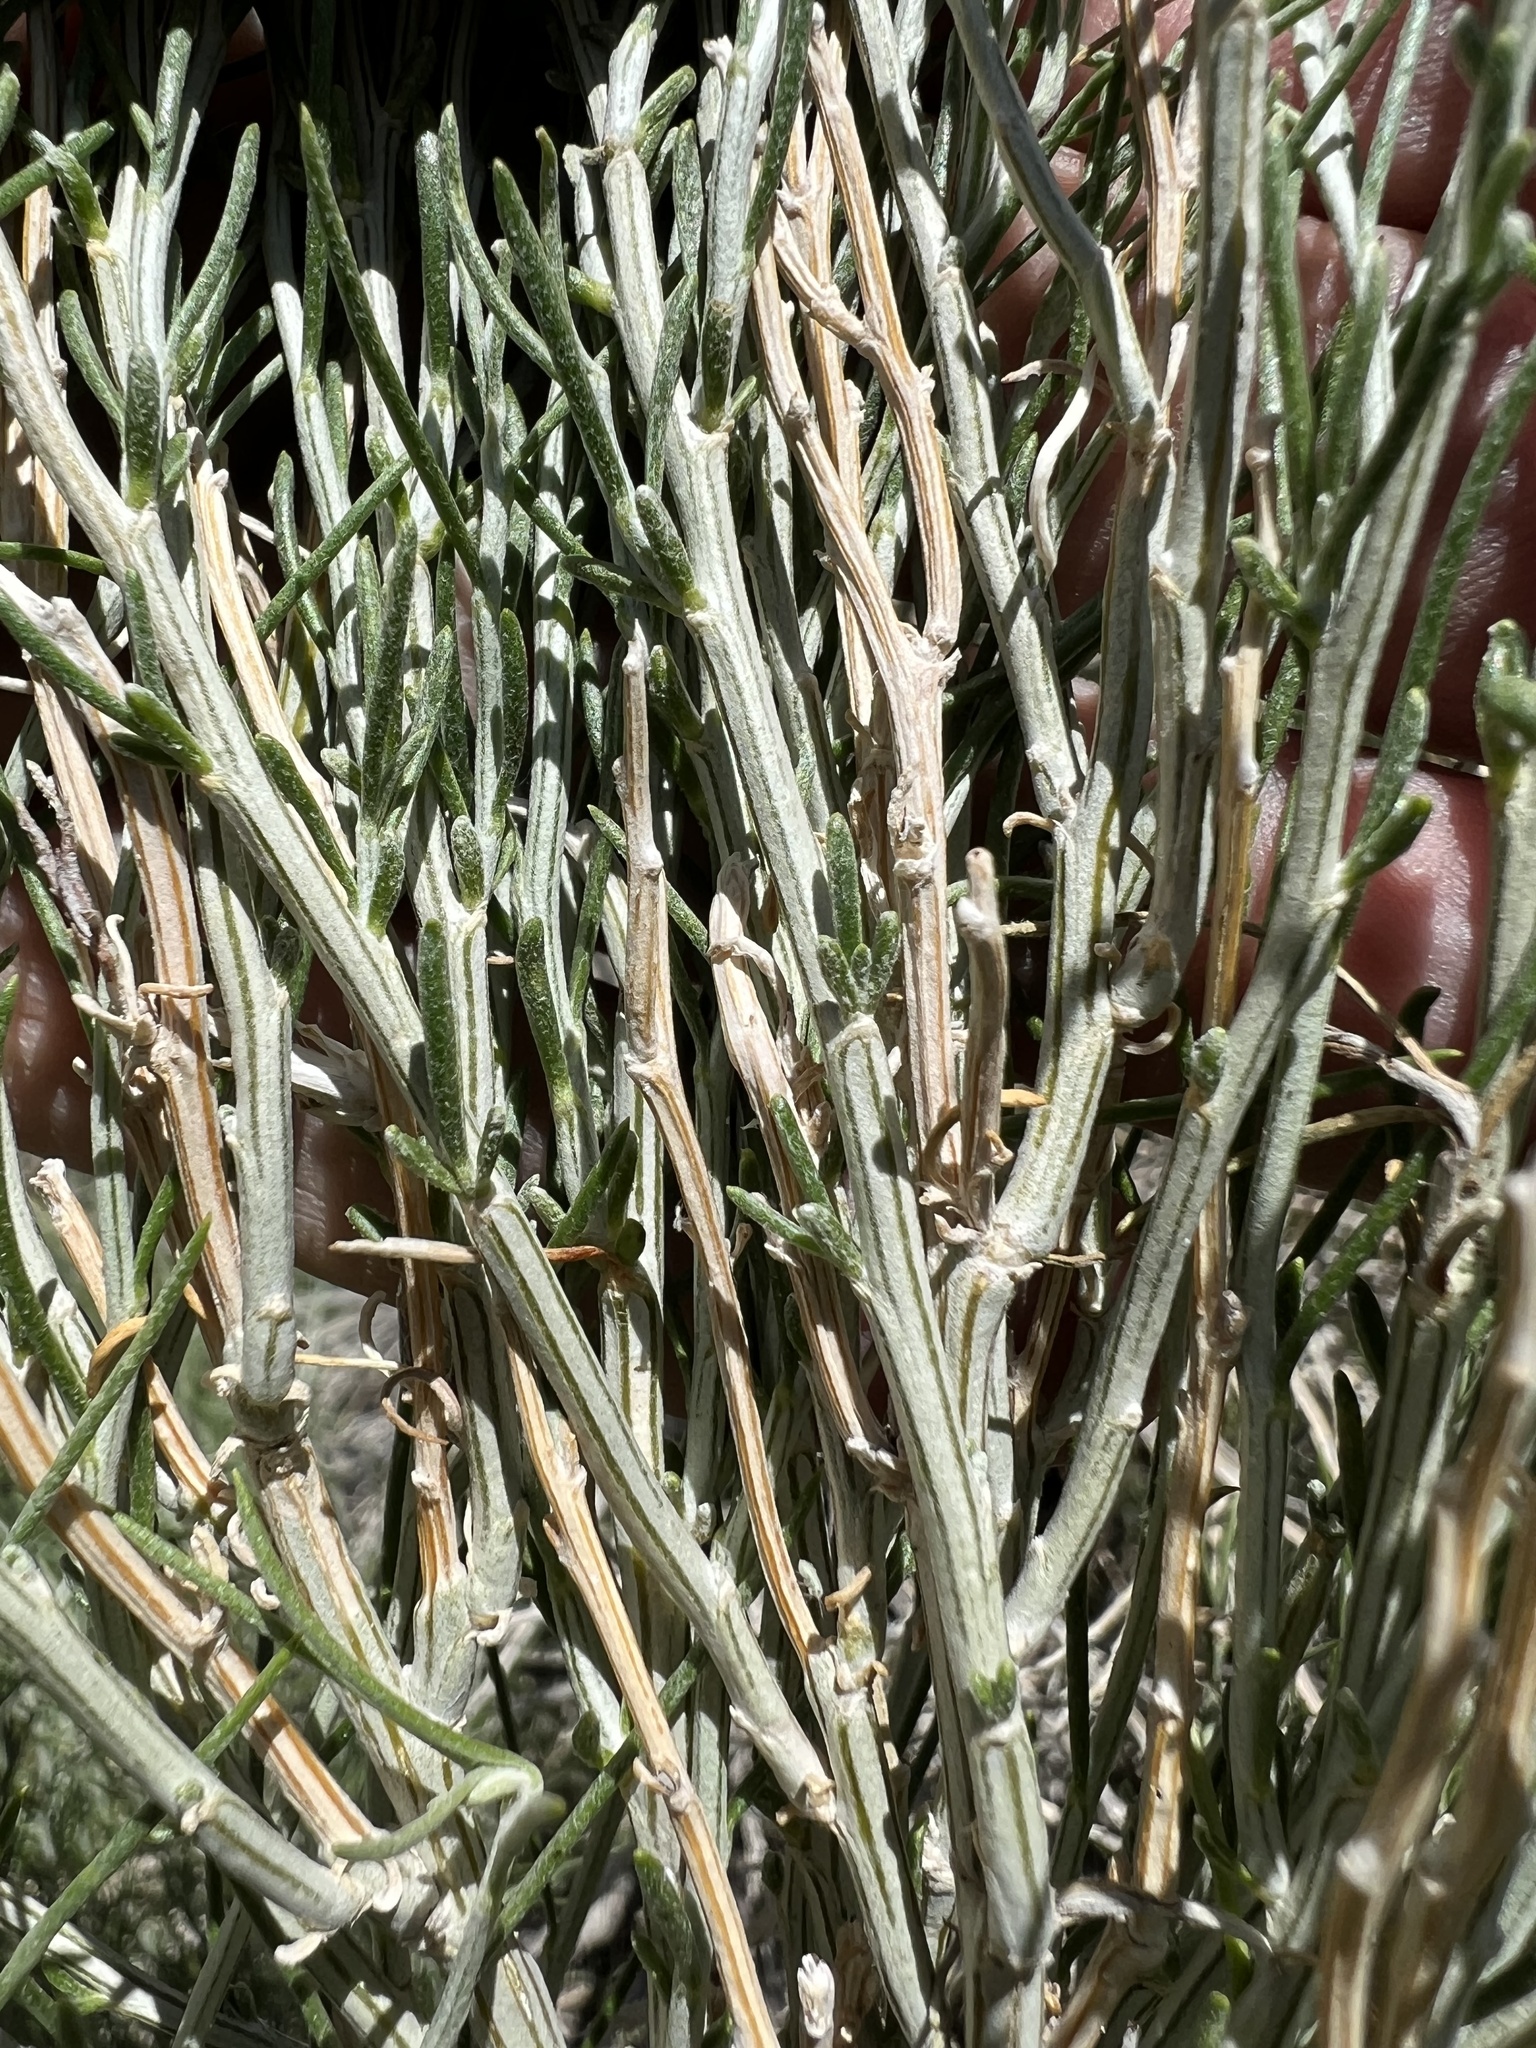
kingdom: Plantae
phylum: Tracheophyta
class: Magnoliopsida
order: Asterales
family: Asteraceae
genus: Lepidospartum
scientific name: Lepidospartum latisquamum
